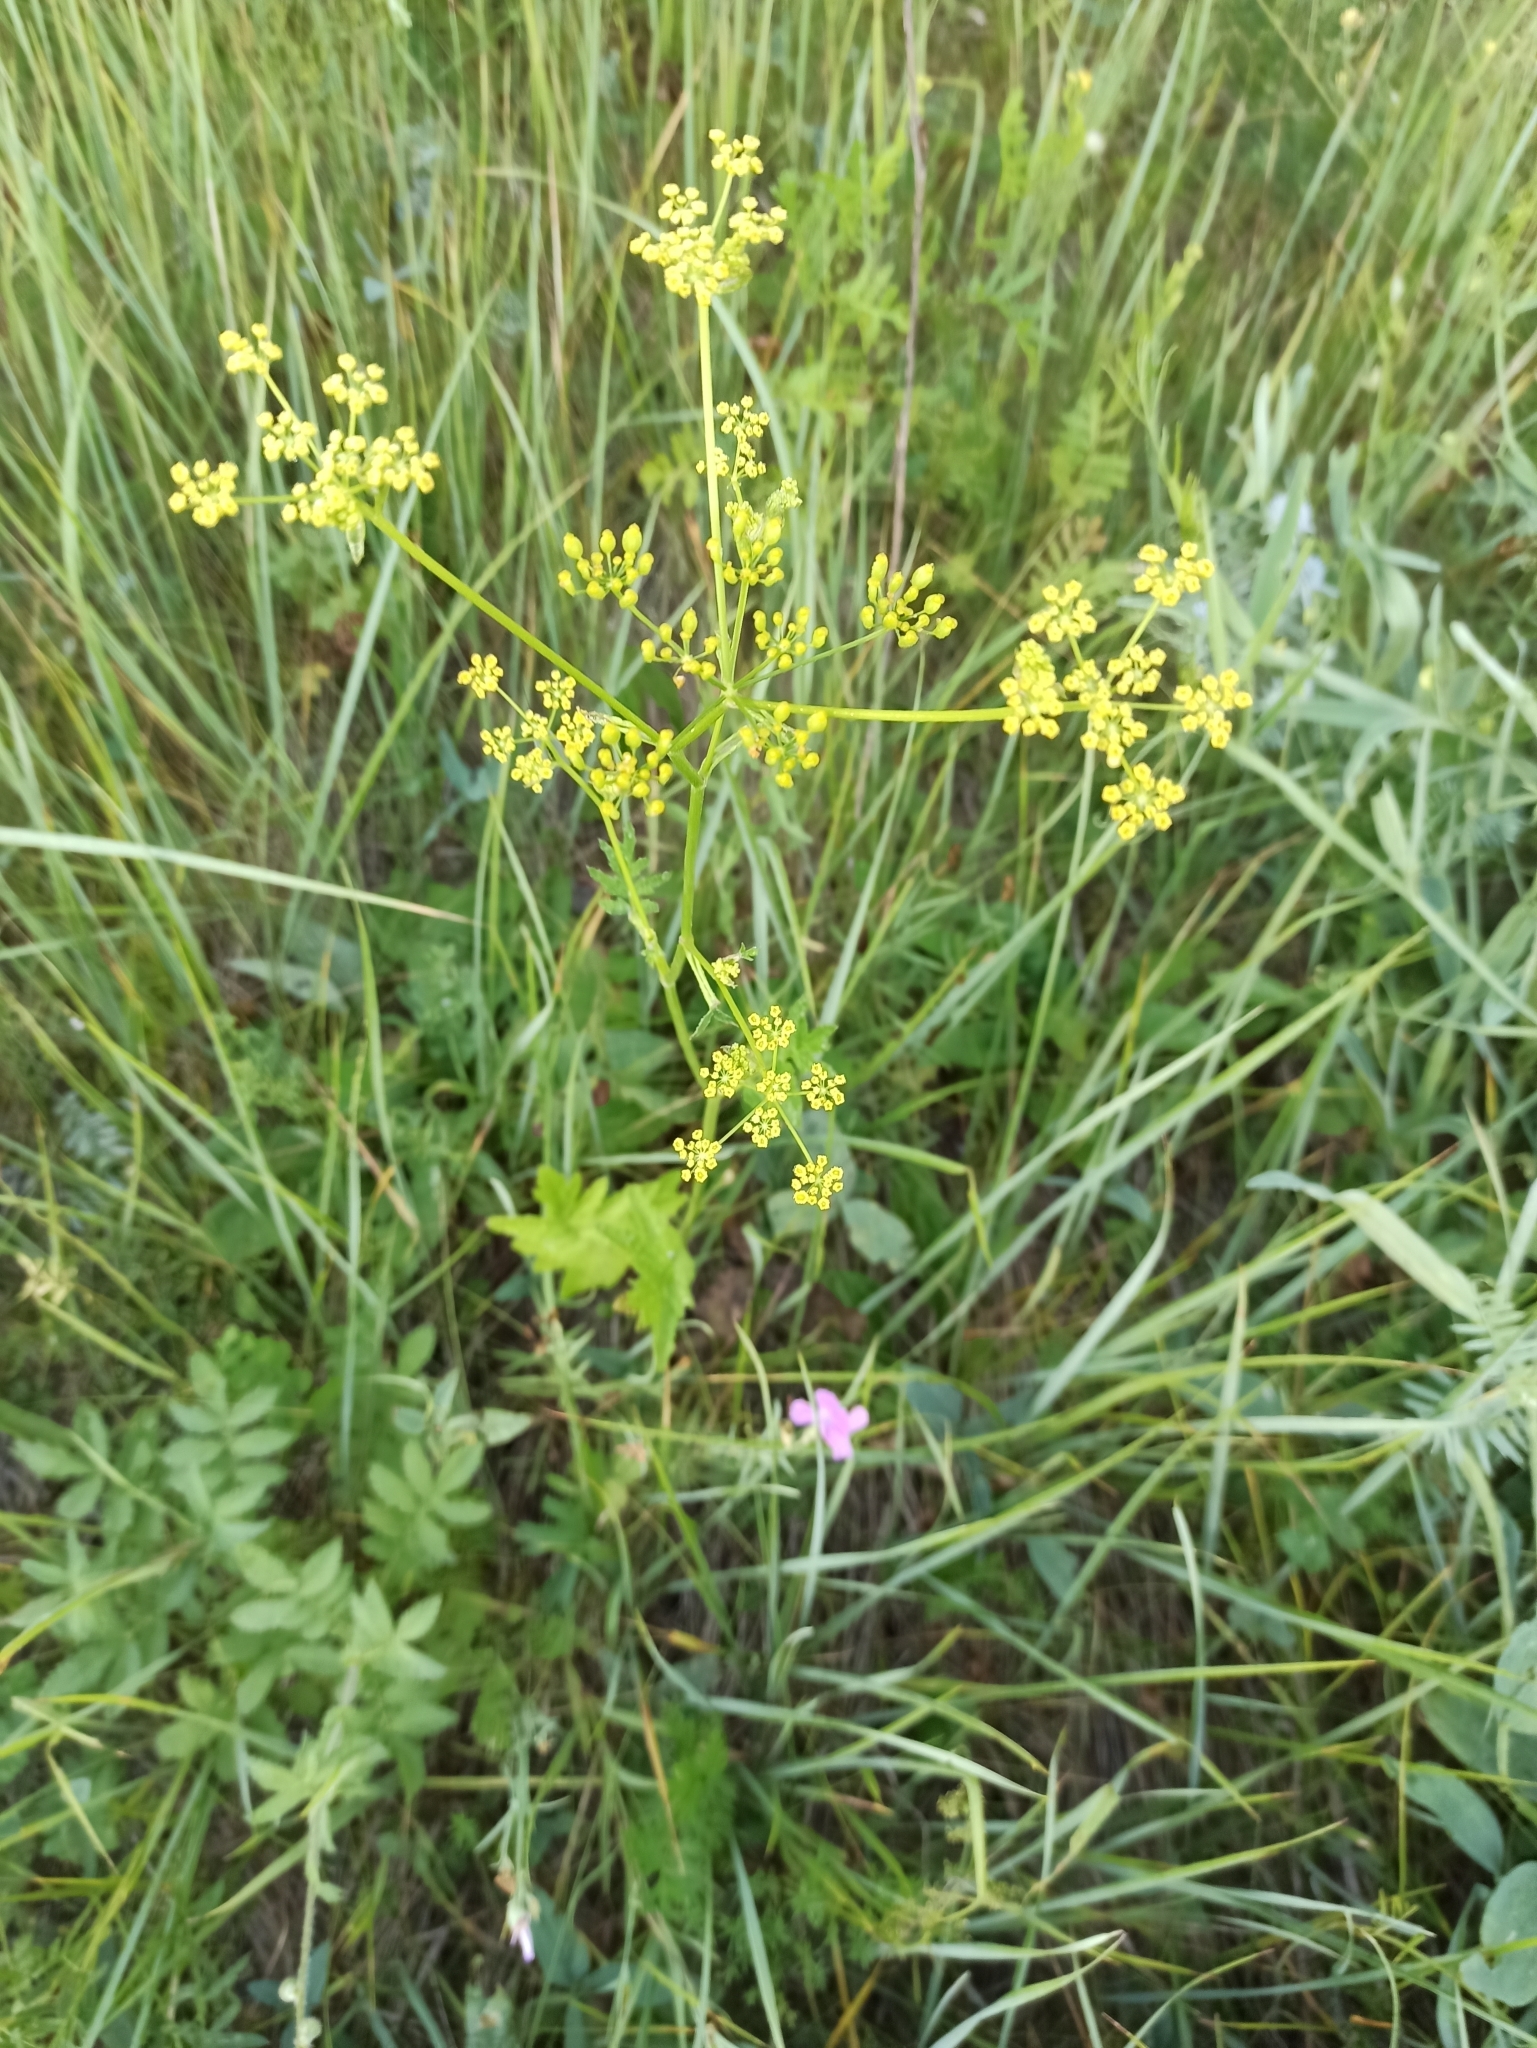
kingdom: Plantae
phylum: Tracheophyta
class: Magnoliopsida
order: Apiales
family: Apiaceae
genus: Pastinaca
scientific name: Pastinaca sativa
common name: Wild parsnip
